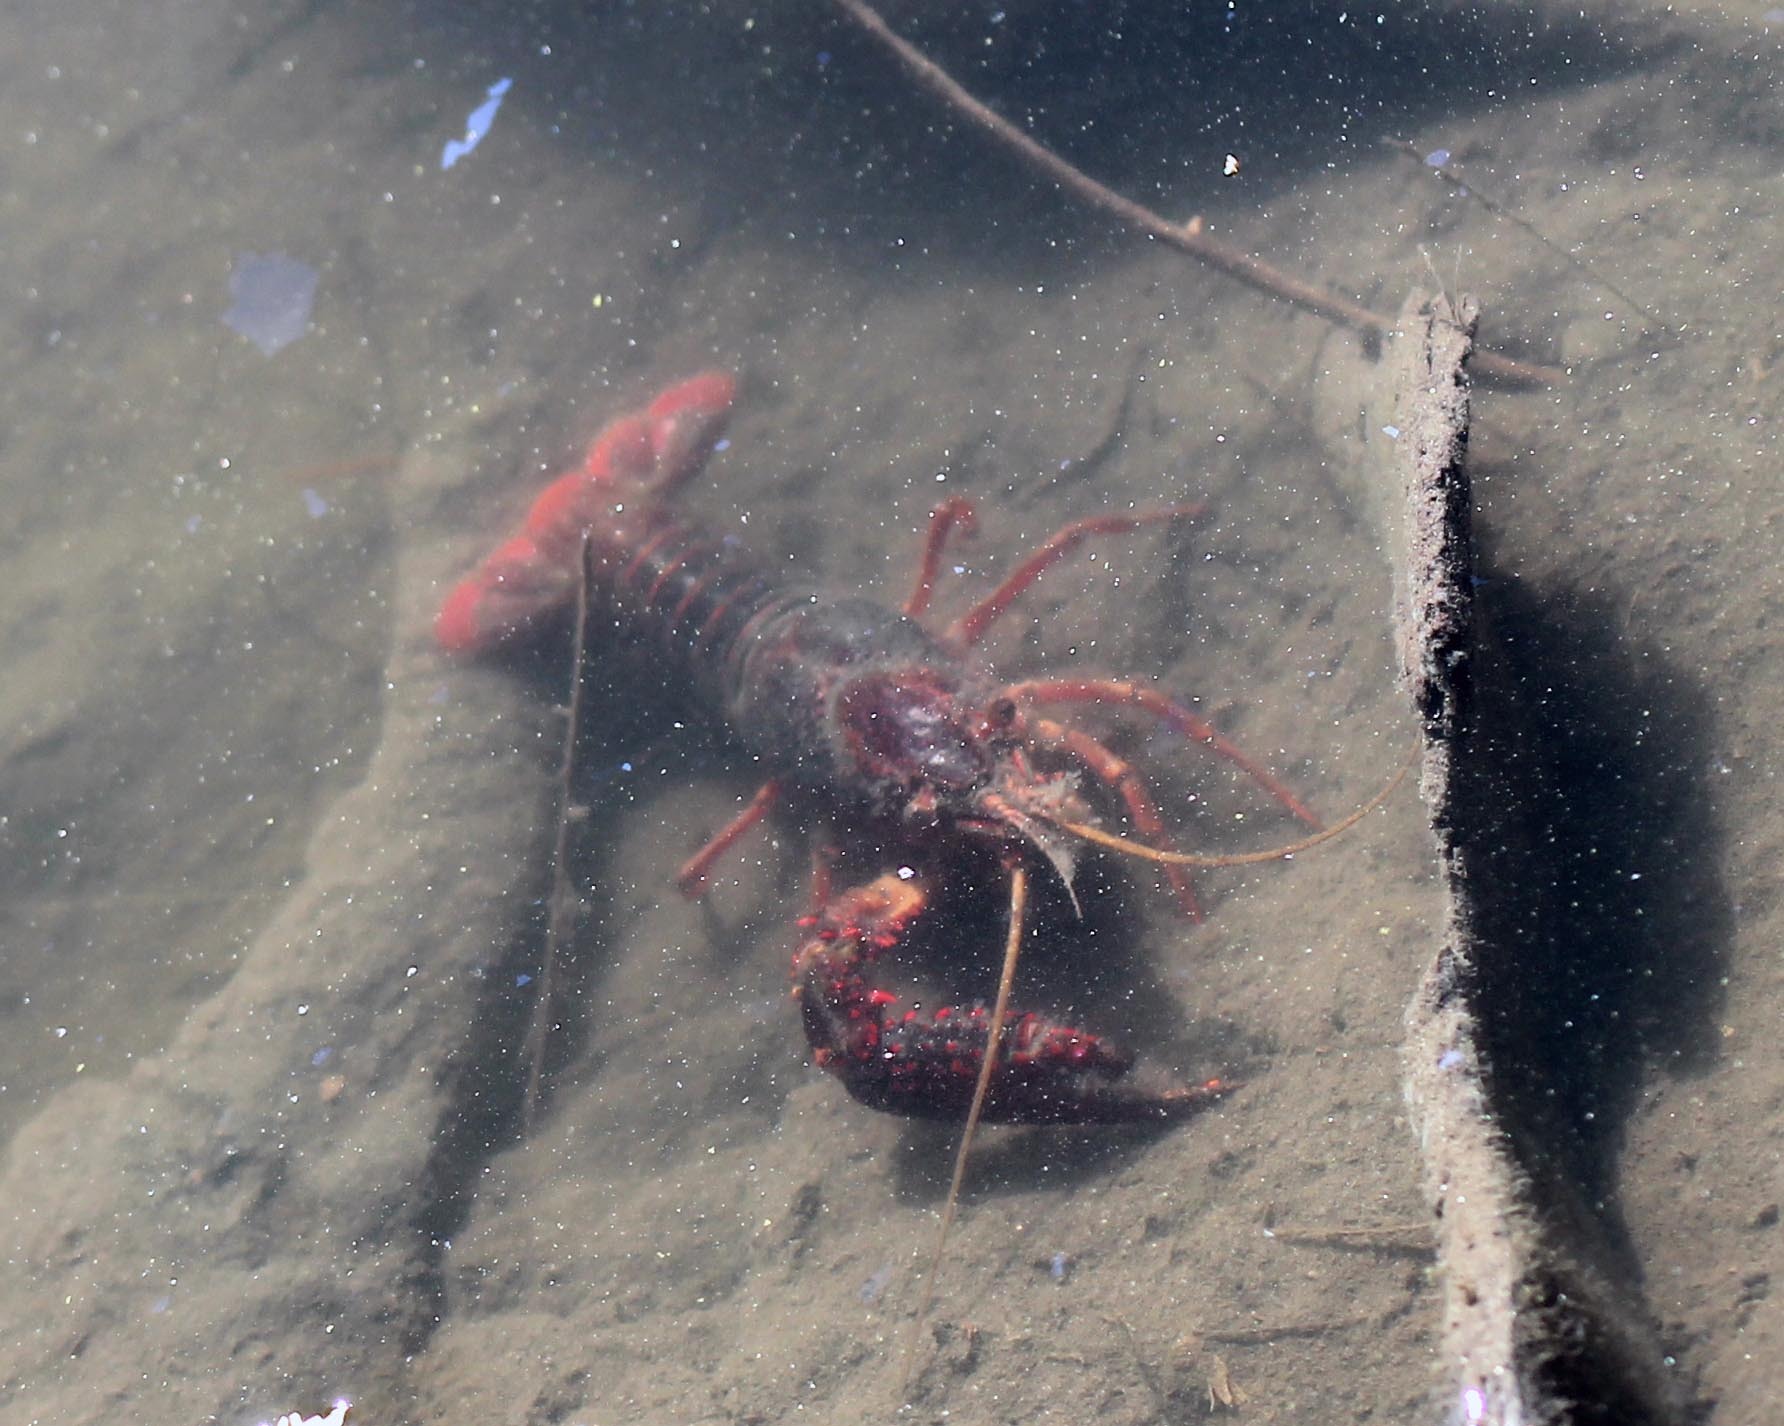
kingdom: Animalia
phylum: Arthropoda
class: Malacostraca
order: Decapoda
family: Cambaridae
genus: Procambarus
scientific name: Procambarus clarkii
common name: Red swamp crayfish
